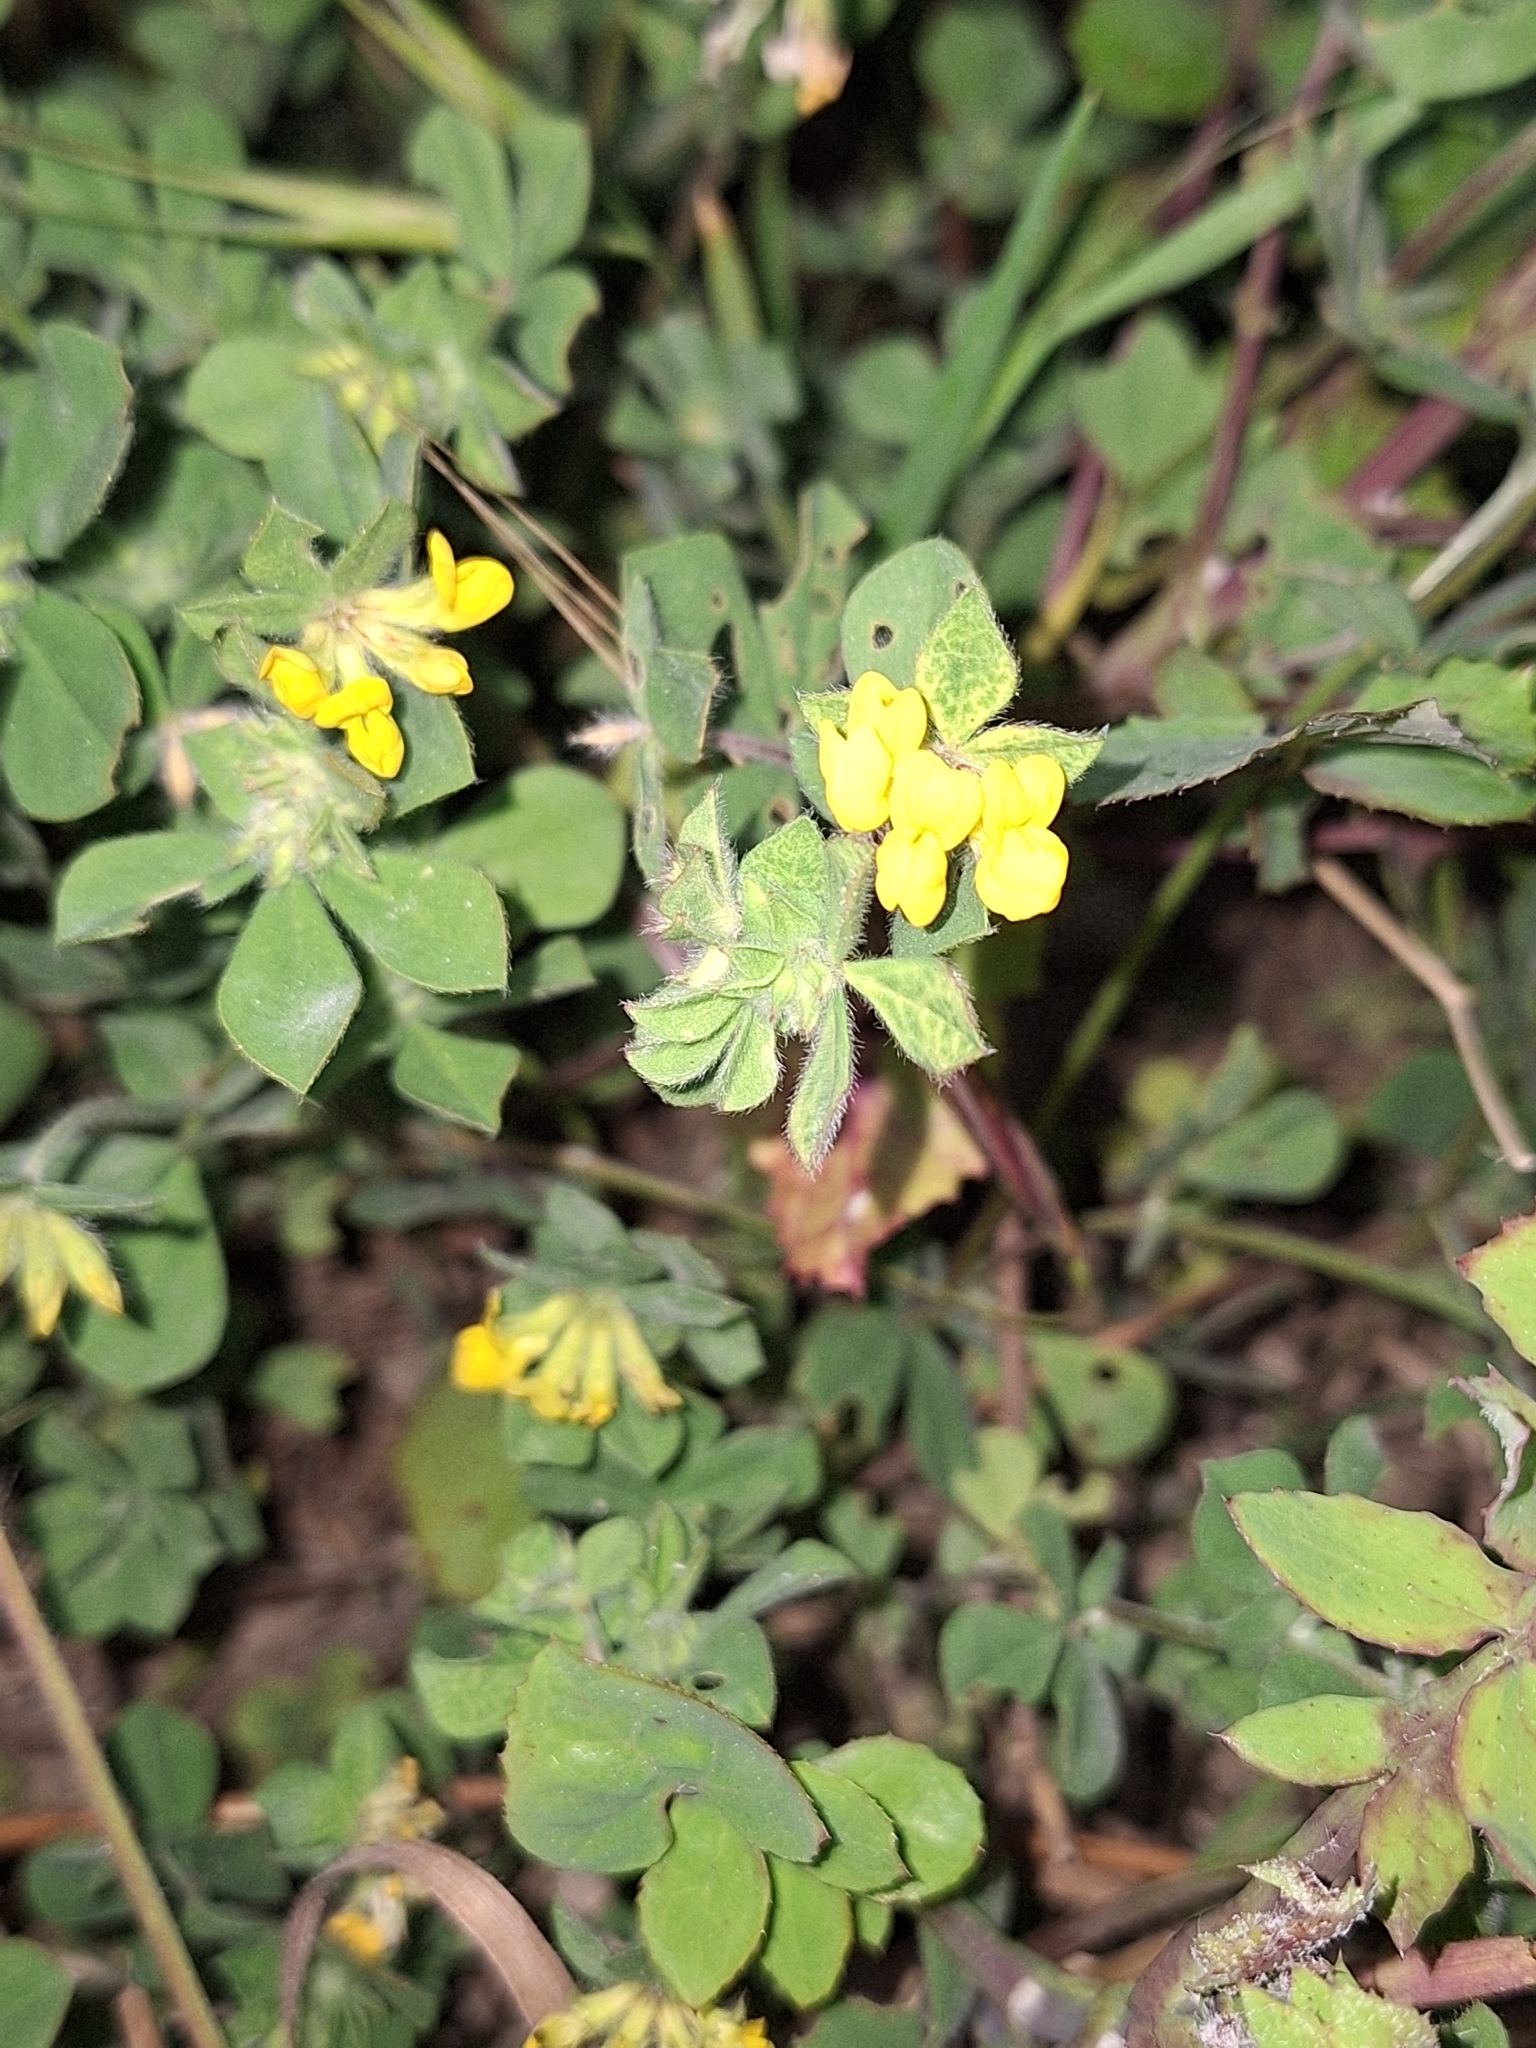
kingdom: Plantae
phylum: Tracheophyta
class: Magnoliopsida
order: Fabales
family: Fabaceae
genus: Lotus
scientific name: Lotus ornithopodioides
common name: Southern bird's-foot trefoil
